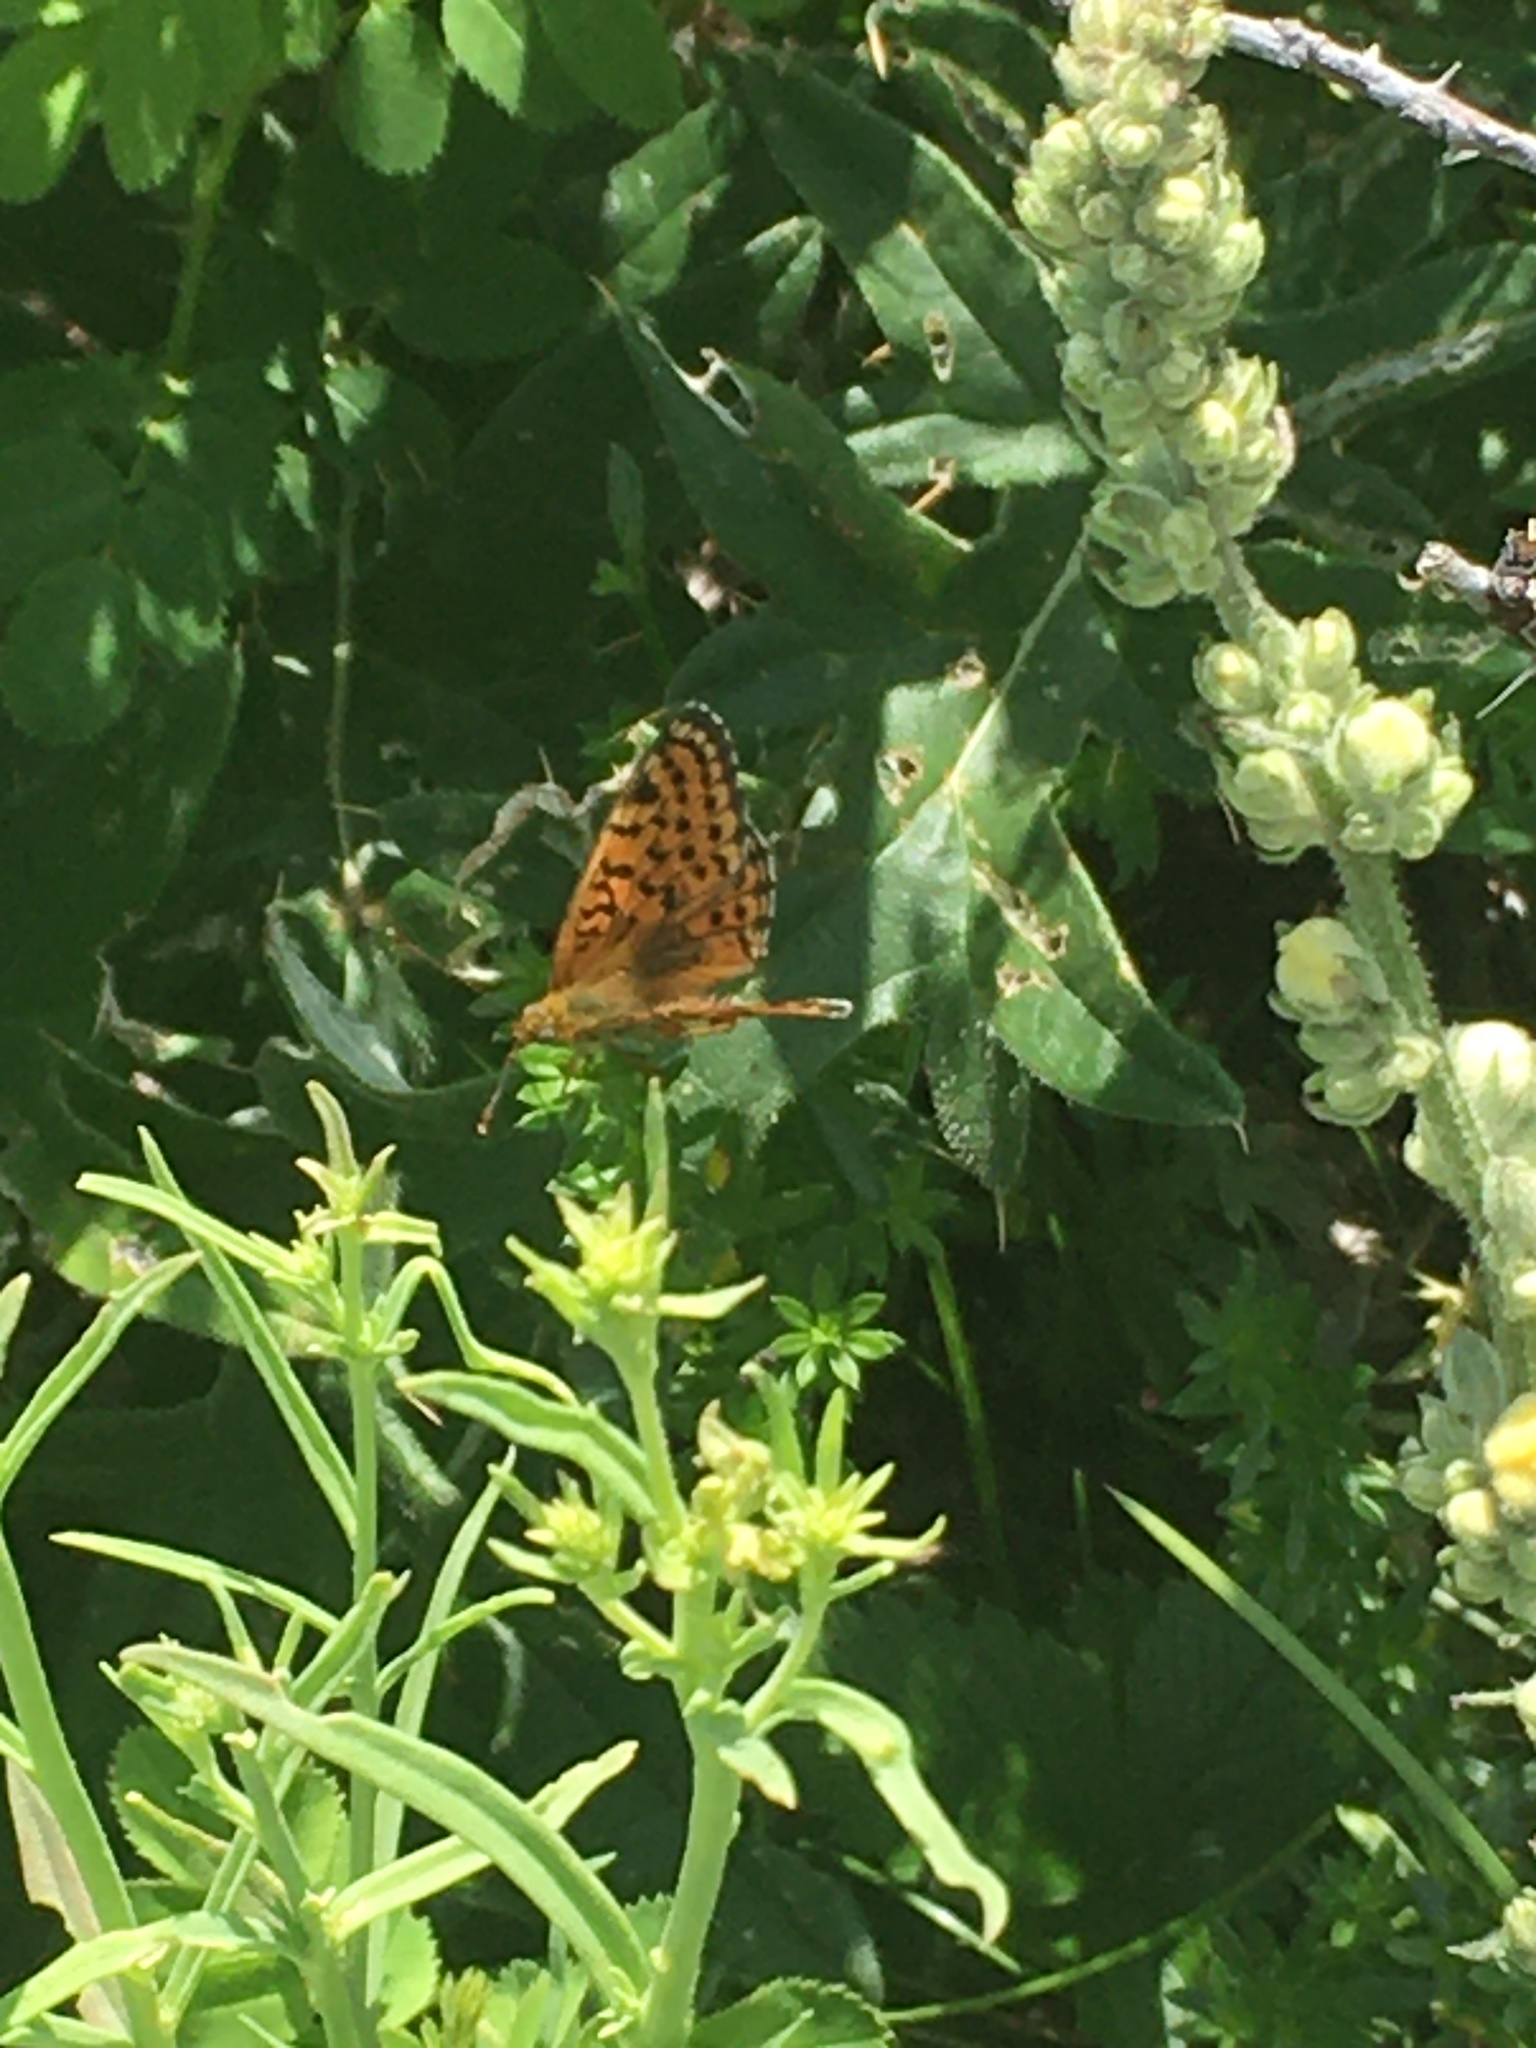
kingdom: Animalia
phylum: Arthropoda
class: Insecta
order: Lepidoptera
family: Nymphalidae
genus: Brenthis
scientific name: Brenthis hecate
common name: Twin-spot fritillary
